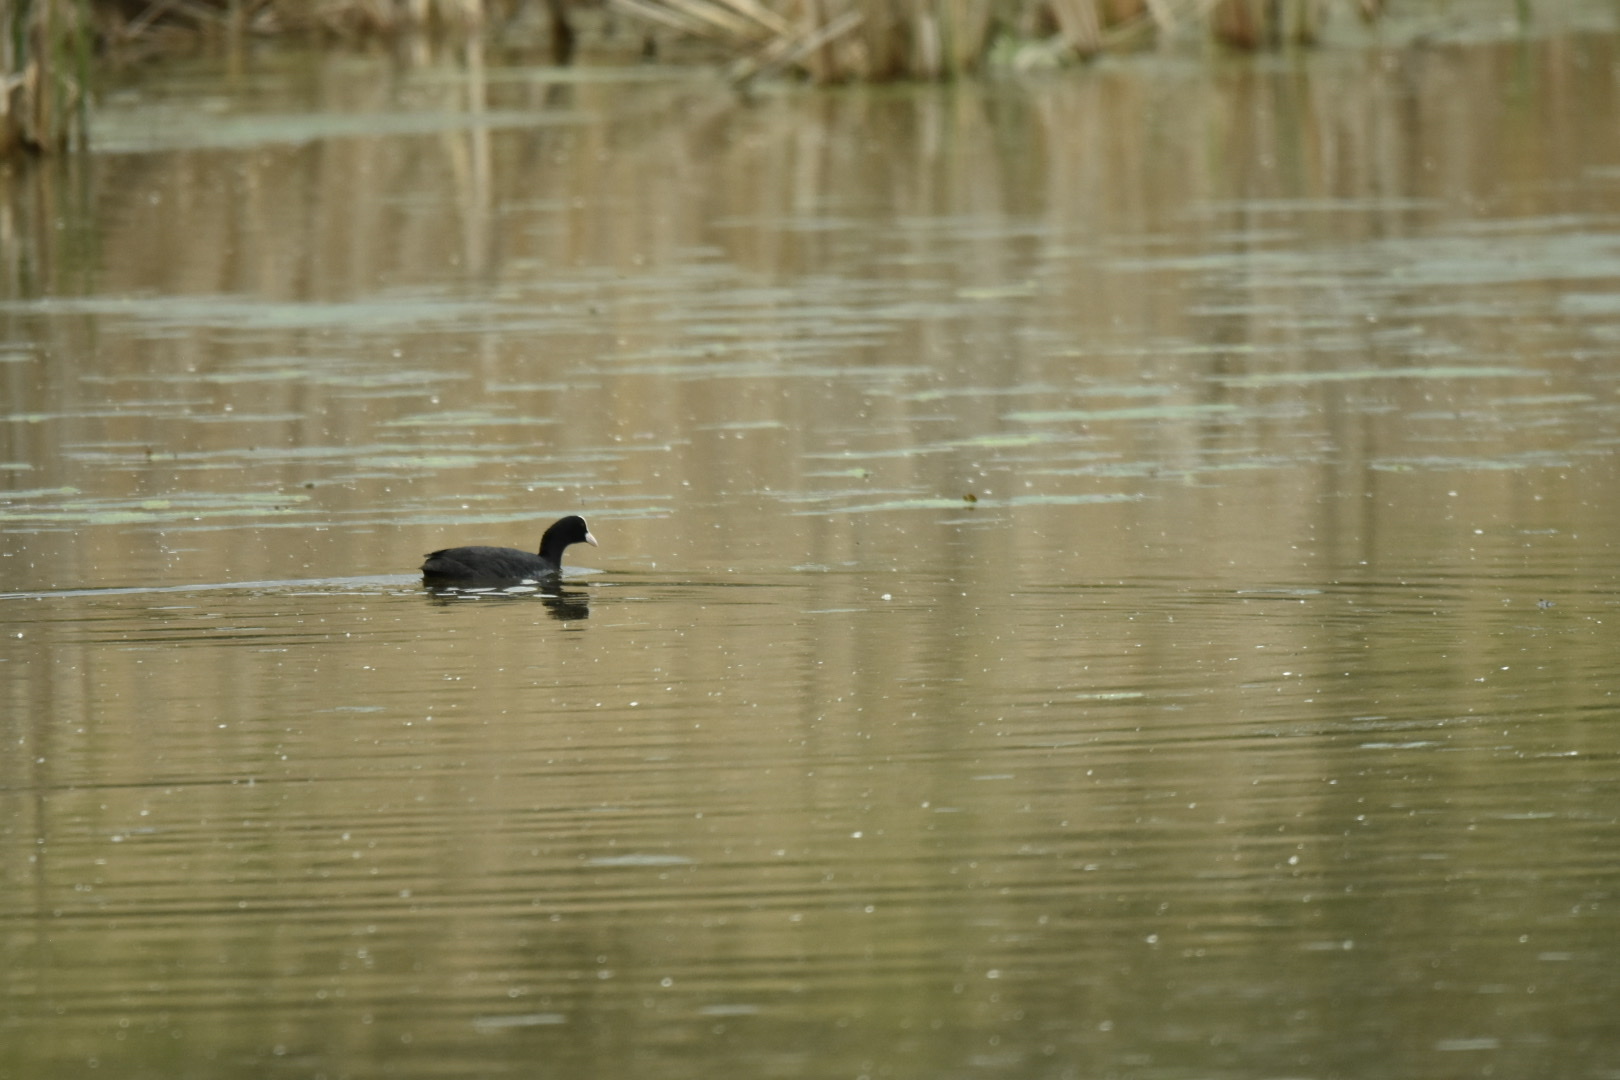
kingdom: Animalia
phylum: Chordata
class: Aves
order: Gruiformes
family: Rallidae
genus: Fulica
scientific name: Fulica atra
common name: Eurasian coot
